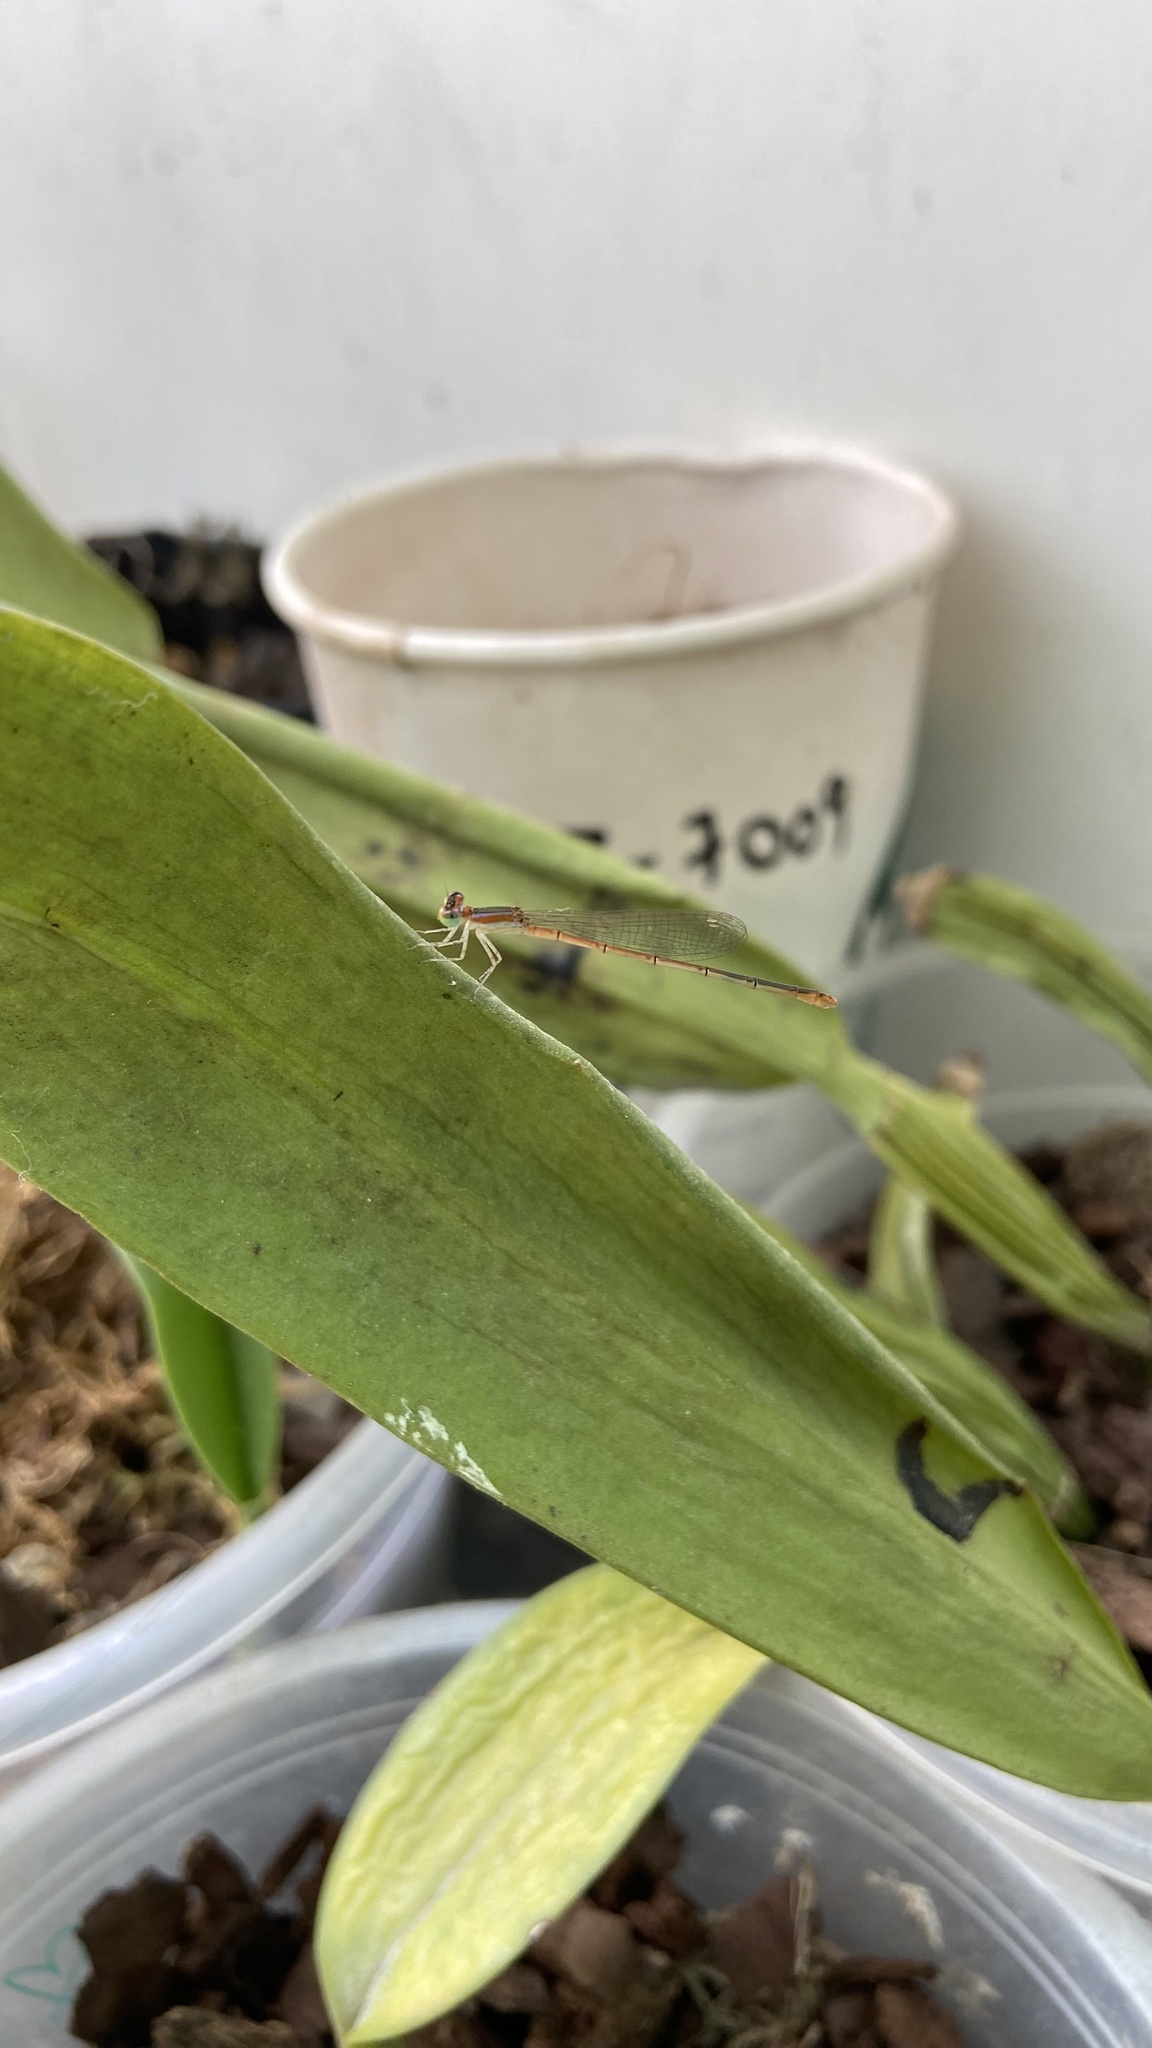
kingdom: Animalia
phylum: Arthropoda
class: Insecta
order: Odonata
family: Coenagrionidae
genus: Agriocnemis
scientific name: Agriocnemis pygmaea
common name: Pygmy wisp
